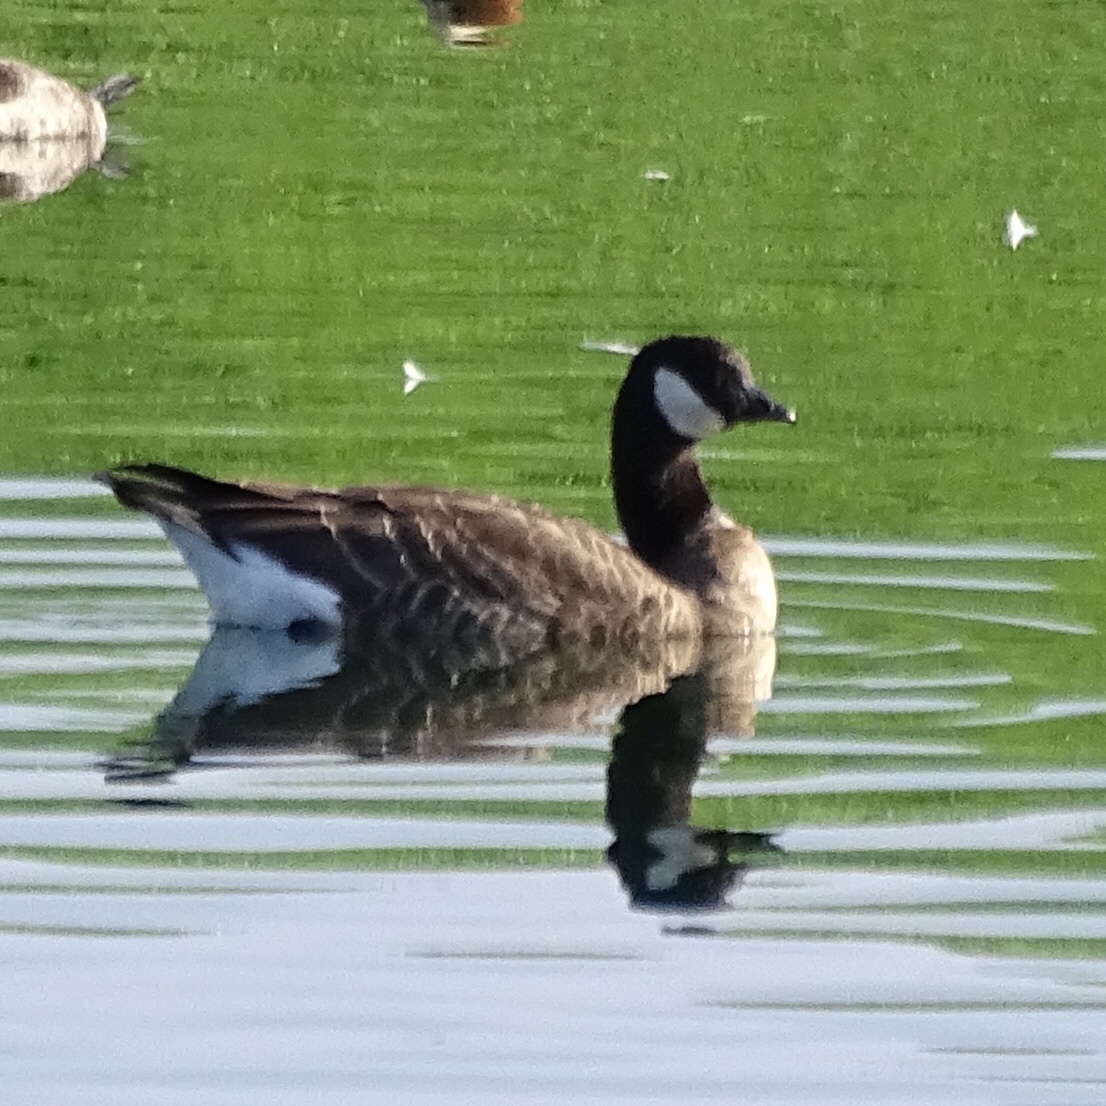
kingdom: Animalia
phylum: Chordata
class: Aves
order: Anseriformes
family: Anatidae
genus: Branta
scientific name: Branta hutchinsii
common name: Cackling goose
